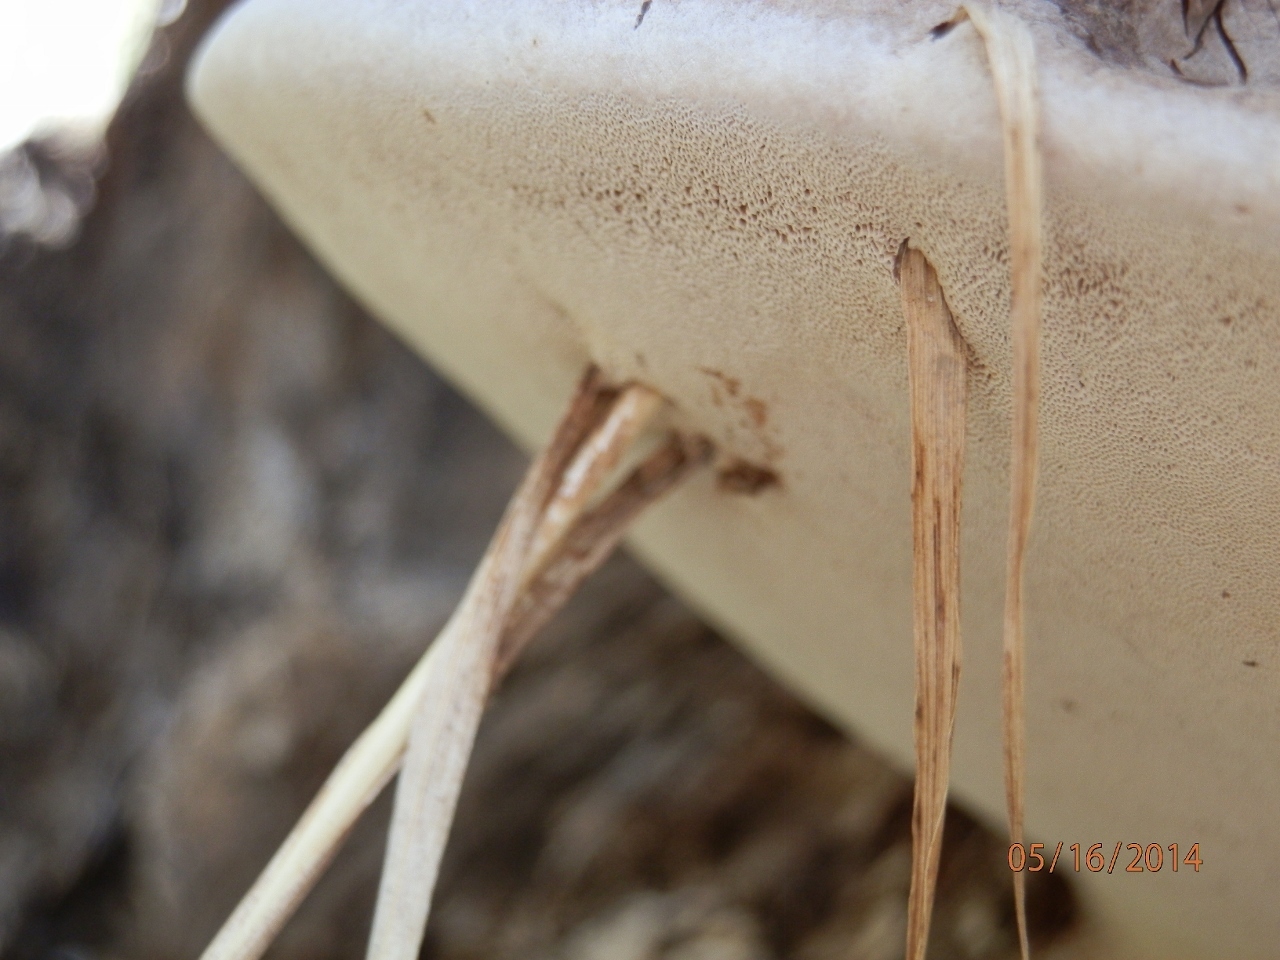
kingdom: Fungi
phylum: Basidiomycota
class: Agaricomycetes
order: Polyporales
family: Polyporaceae
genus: Ganoderma
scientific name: Ganoderma applanatum
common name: Artist's bracket
